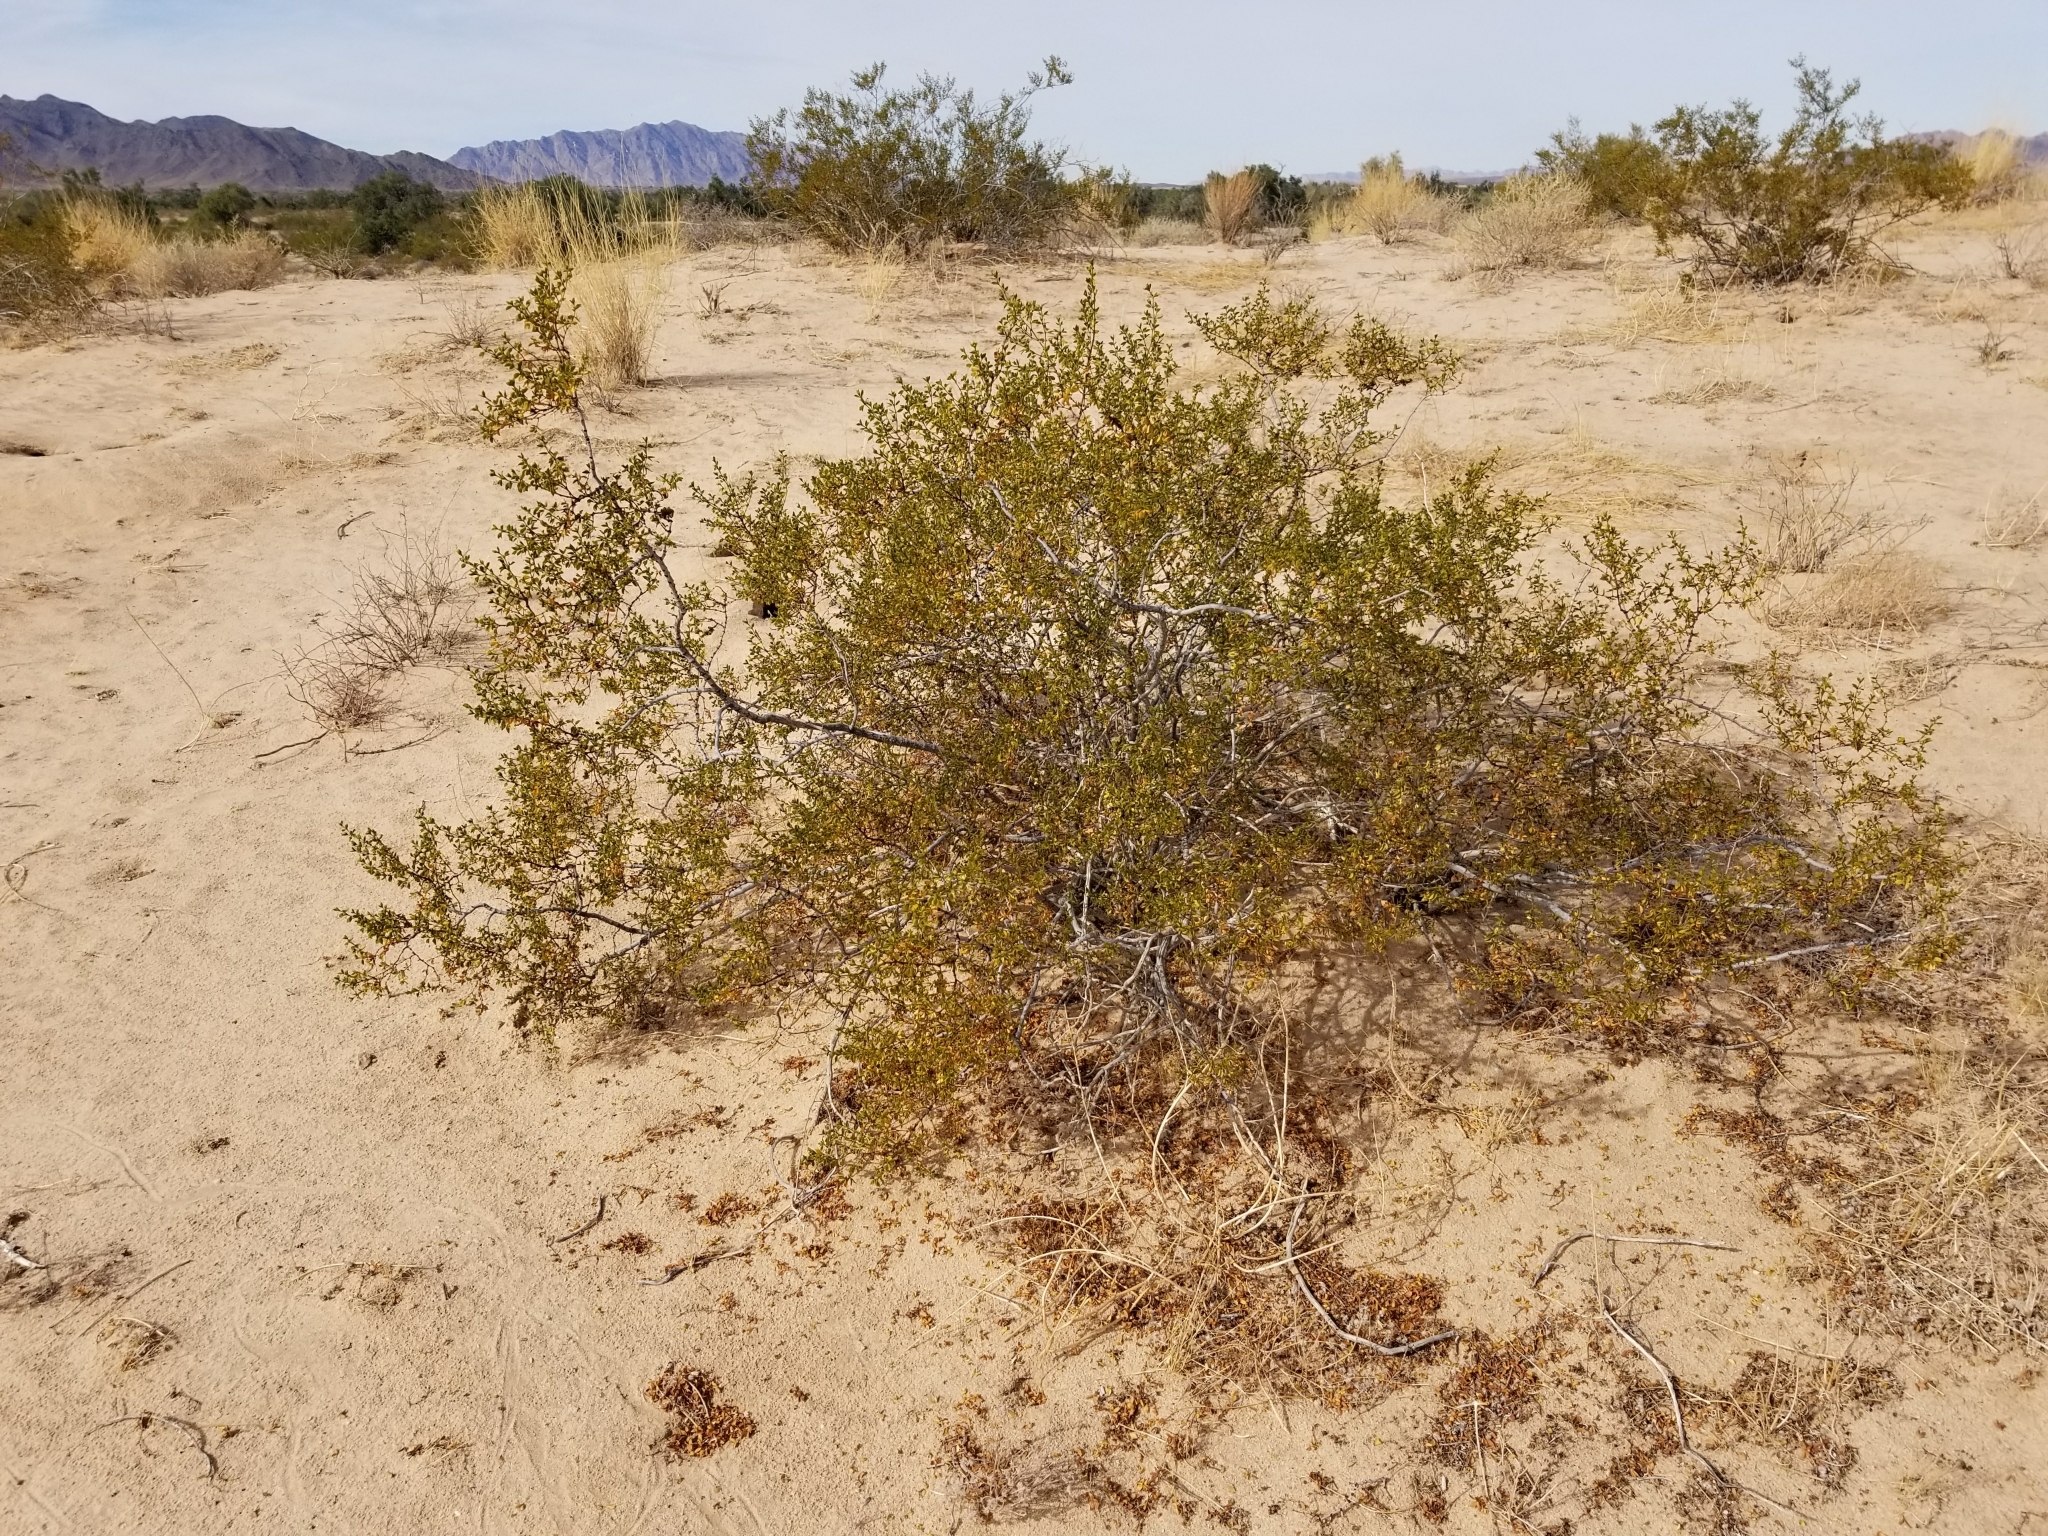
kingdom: Plantae
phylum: Tracheophyta
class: Magnoliopsida
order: Zygophyllales
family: Zygophyllaceae
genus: Larrea
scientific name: Larrea tridentata
